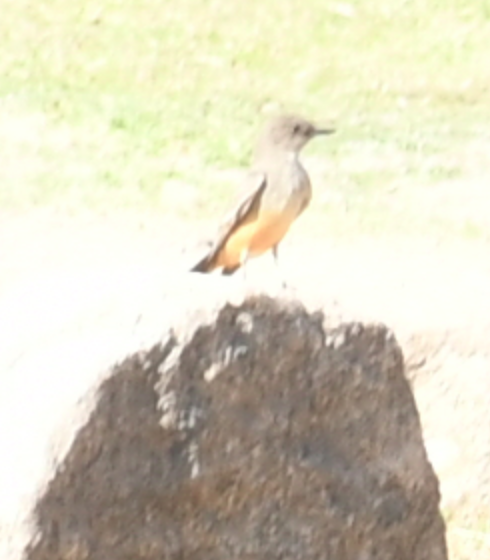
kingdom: Animalia
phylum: Chordata
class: Aves
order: Passeriformes
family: Tyrannidae
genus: Sayornis
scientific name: Sayornis saya
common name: Say's phoebe
